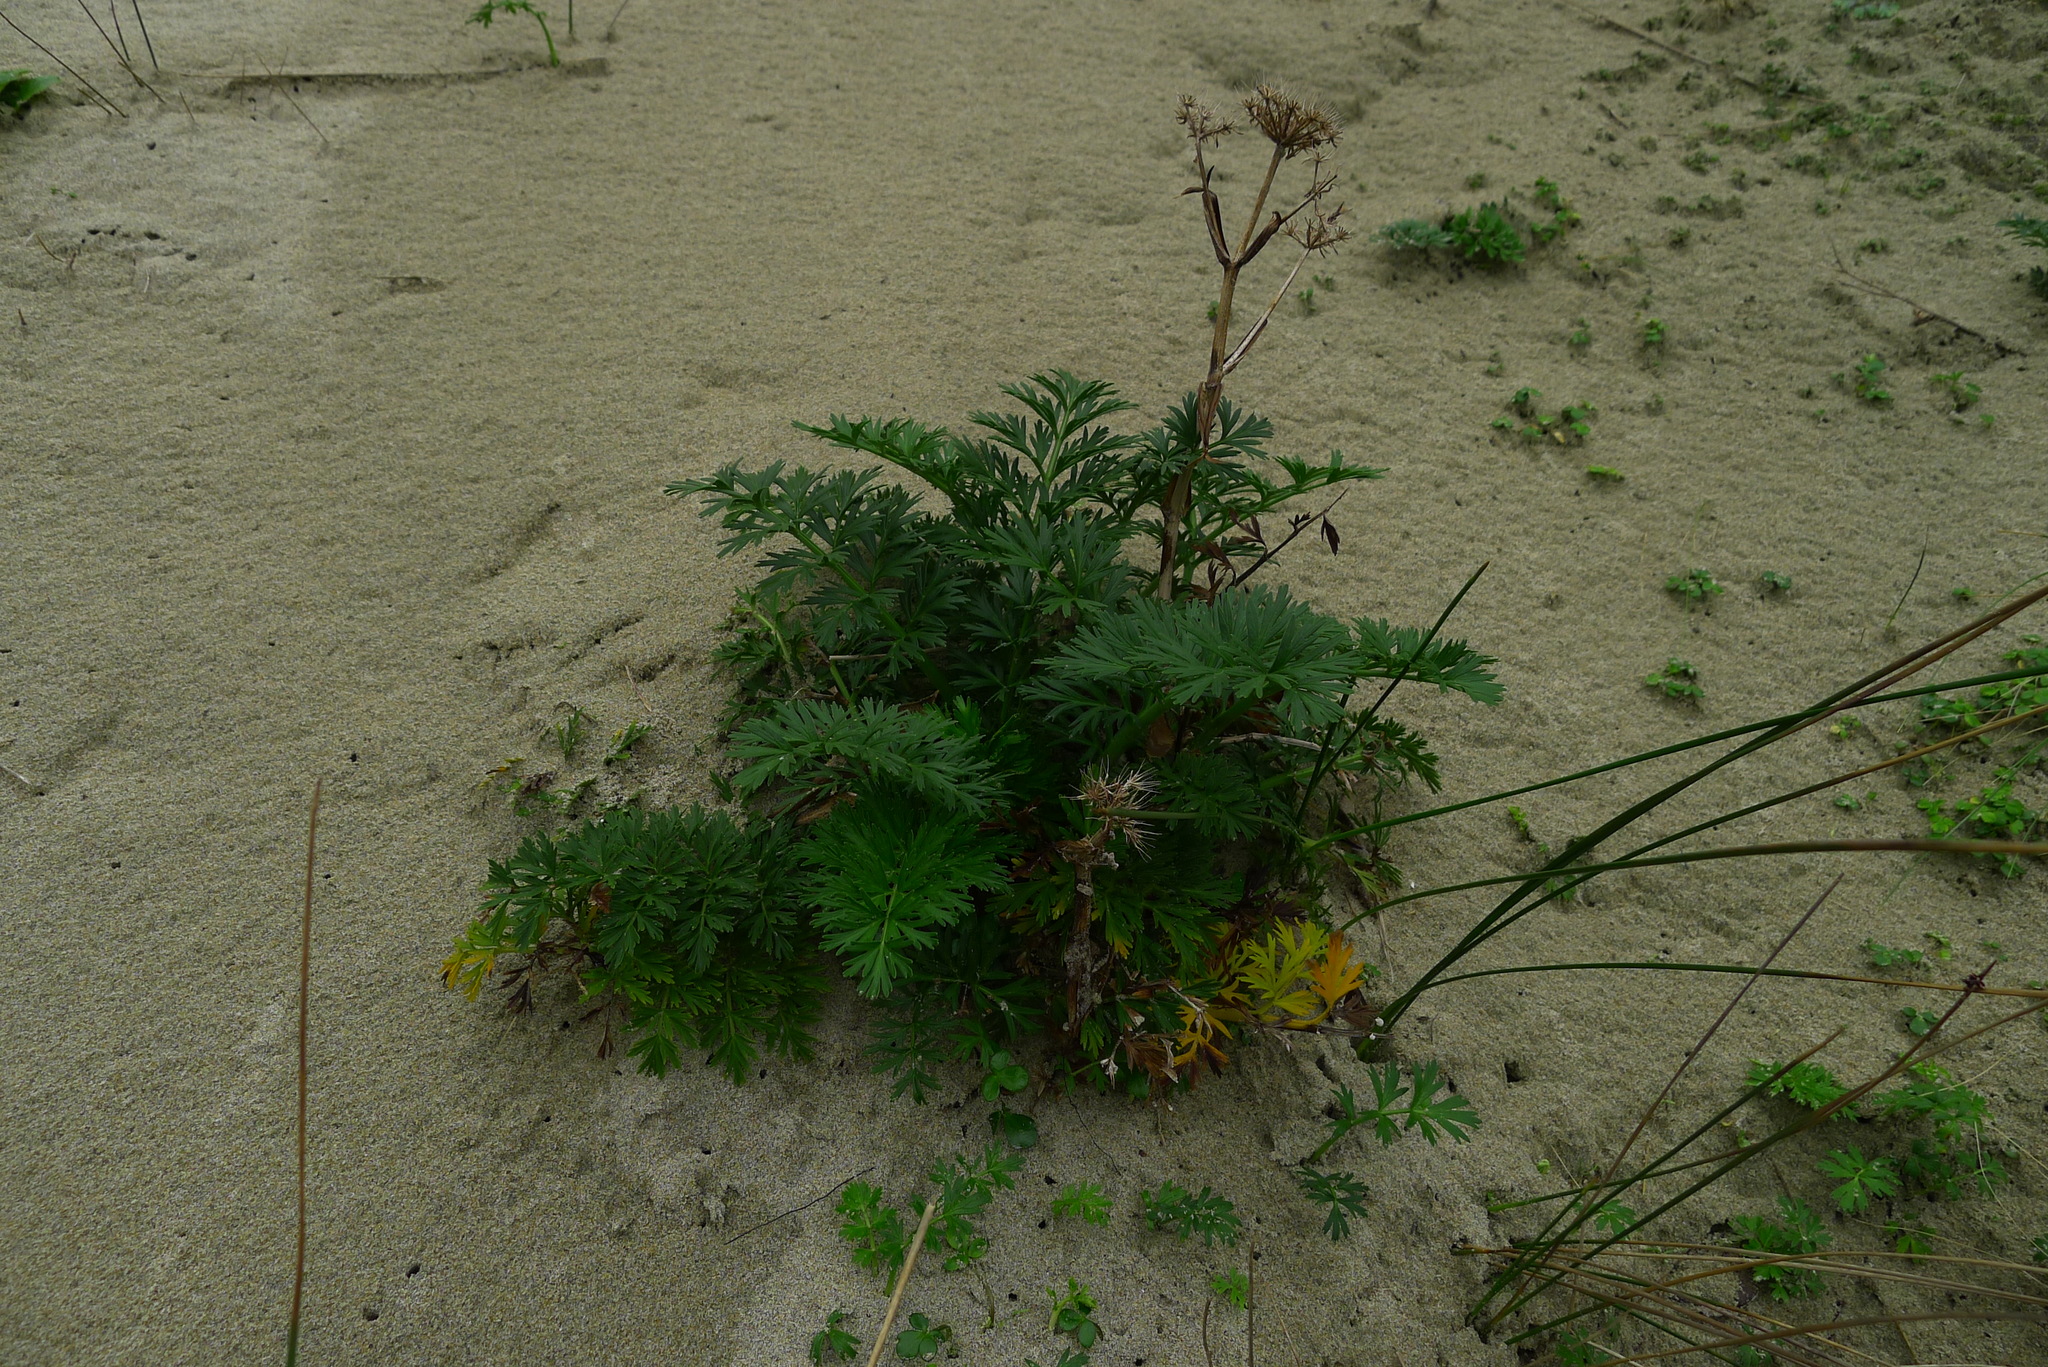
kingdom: Plantae
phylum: Tracheophyta
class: Magnoliopsida
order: Apiales
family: Apiaceae
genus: Anisotome
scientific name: Anisotome lyallii
